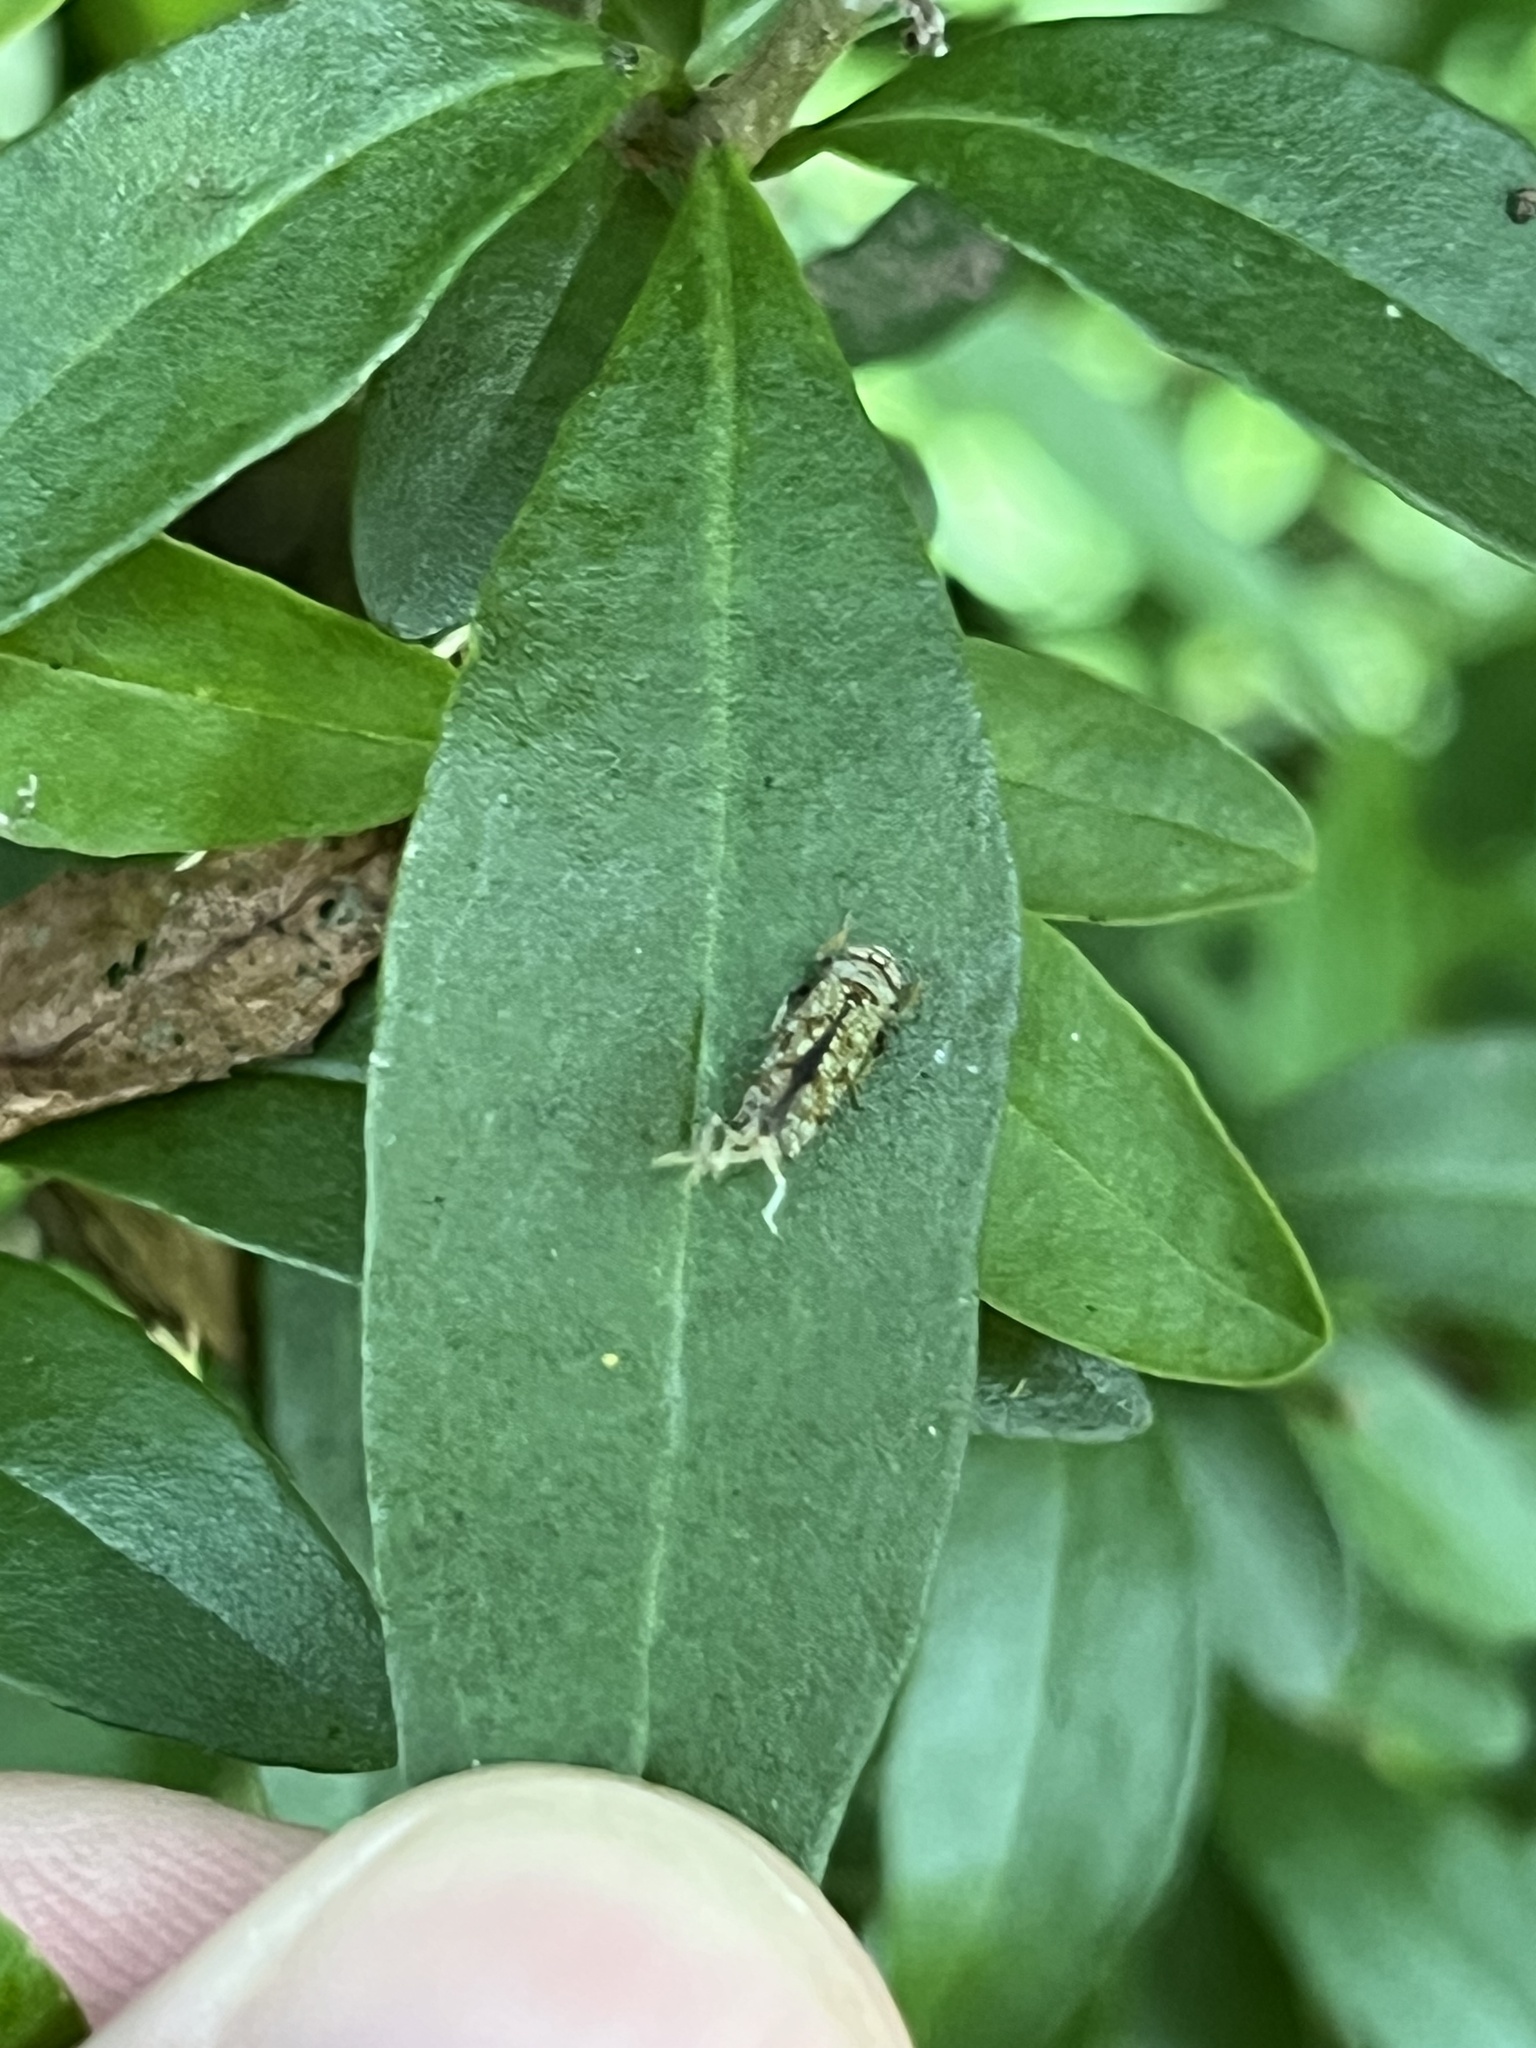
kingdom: Fungi
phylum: Ascomycota
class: Sordariomycetes
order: Hypocreales
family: Ophiocordycipitaceae
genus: Hirsutella
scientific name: Hirsutella citriformis
